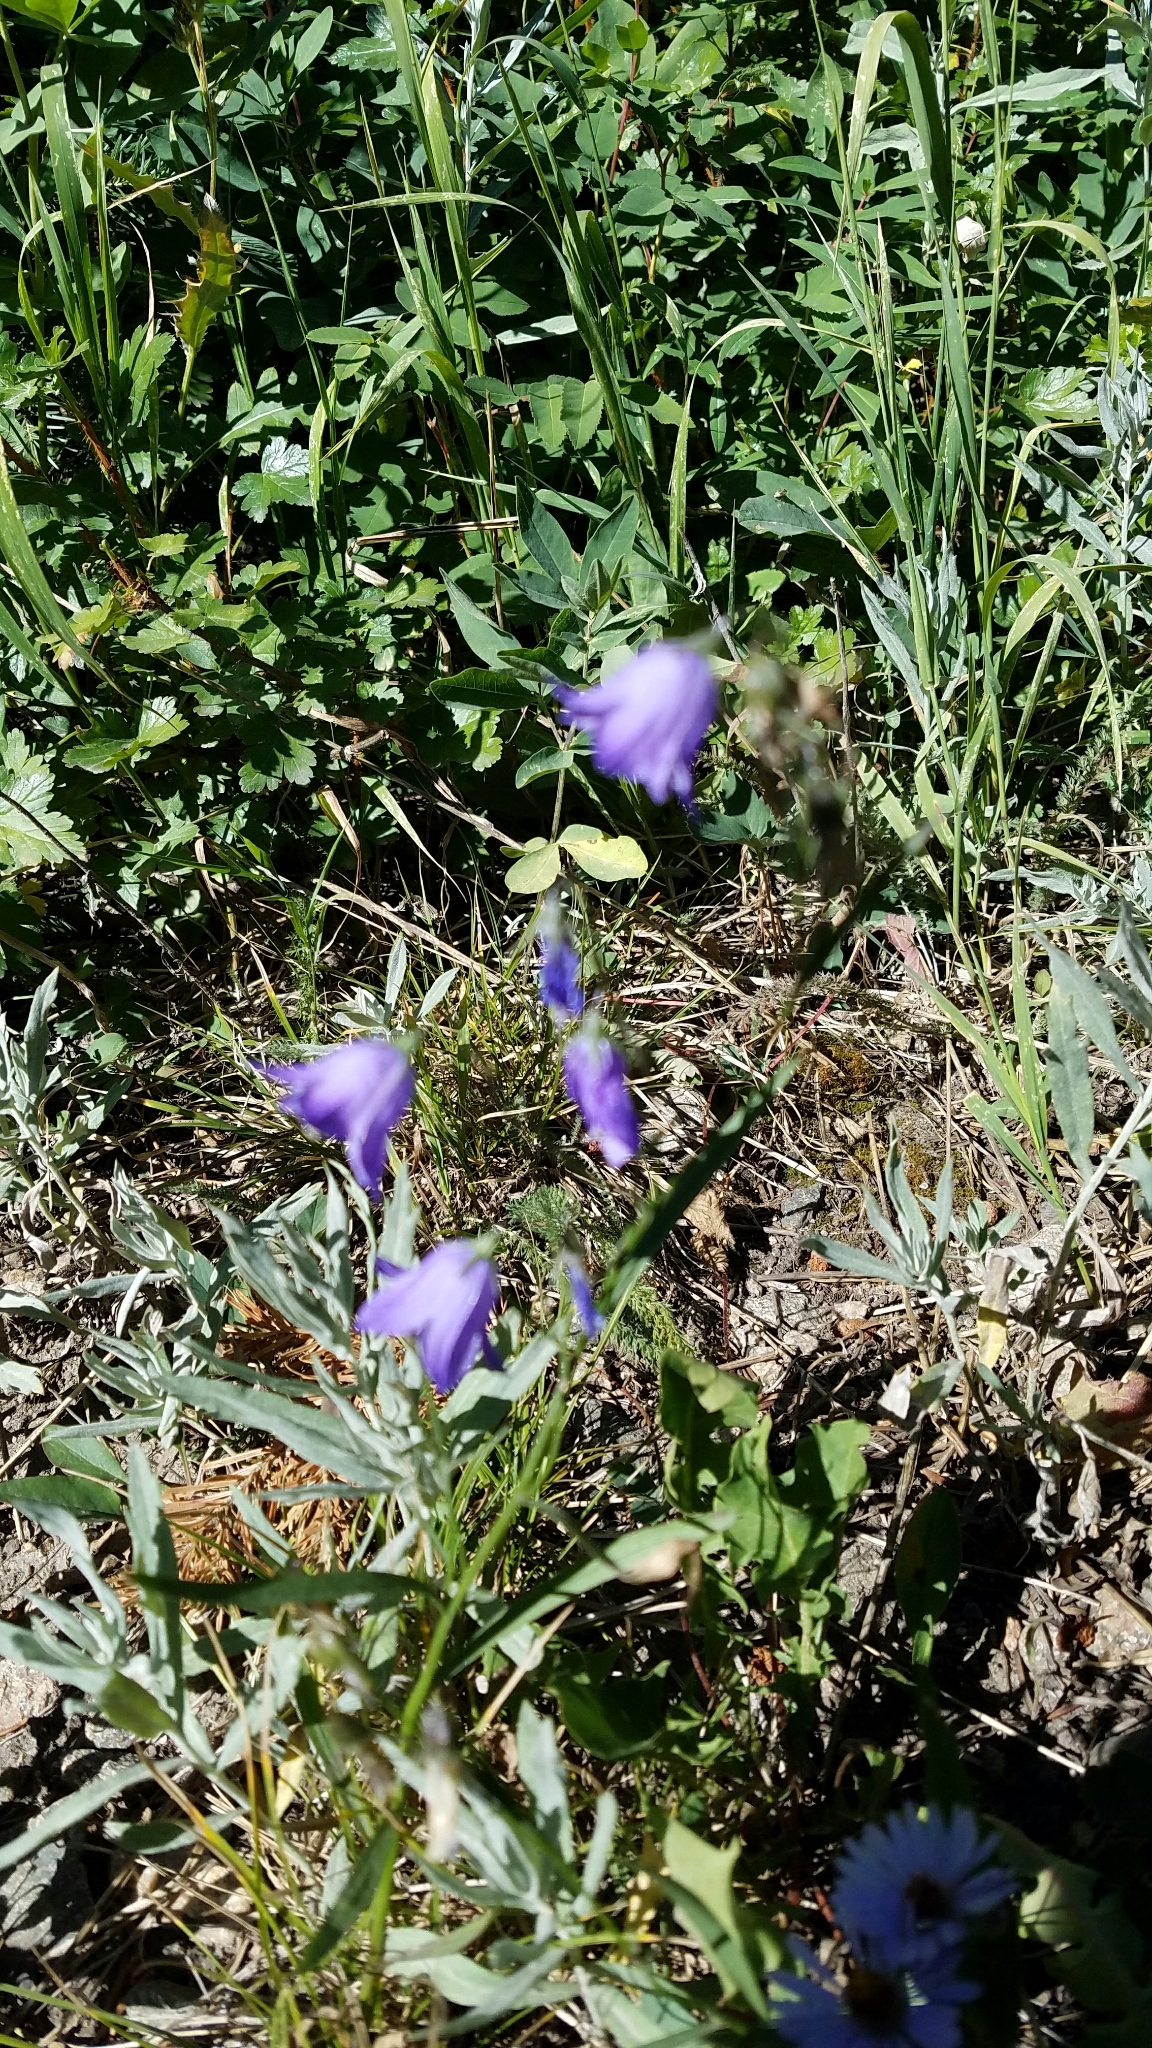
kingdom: Plantae
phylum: Tracheophyta
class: Magnoliopsida
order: Asterales
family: Campanulaceae
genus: Campanula
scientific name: Campanula petiolata
